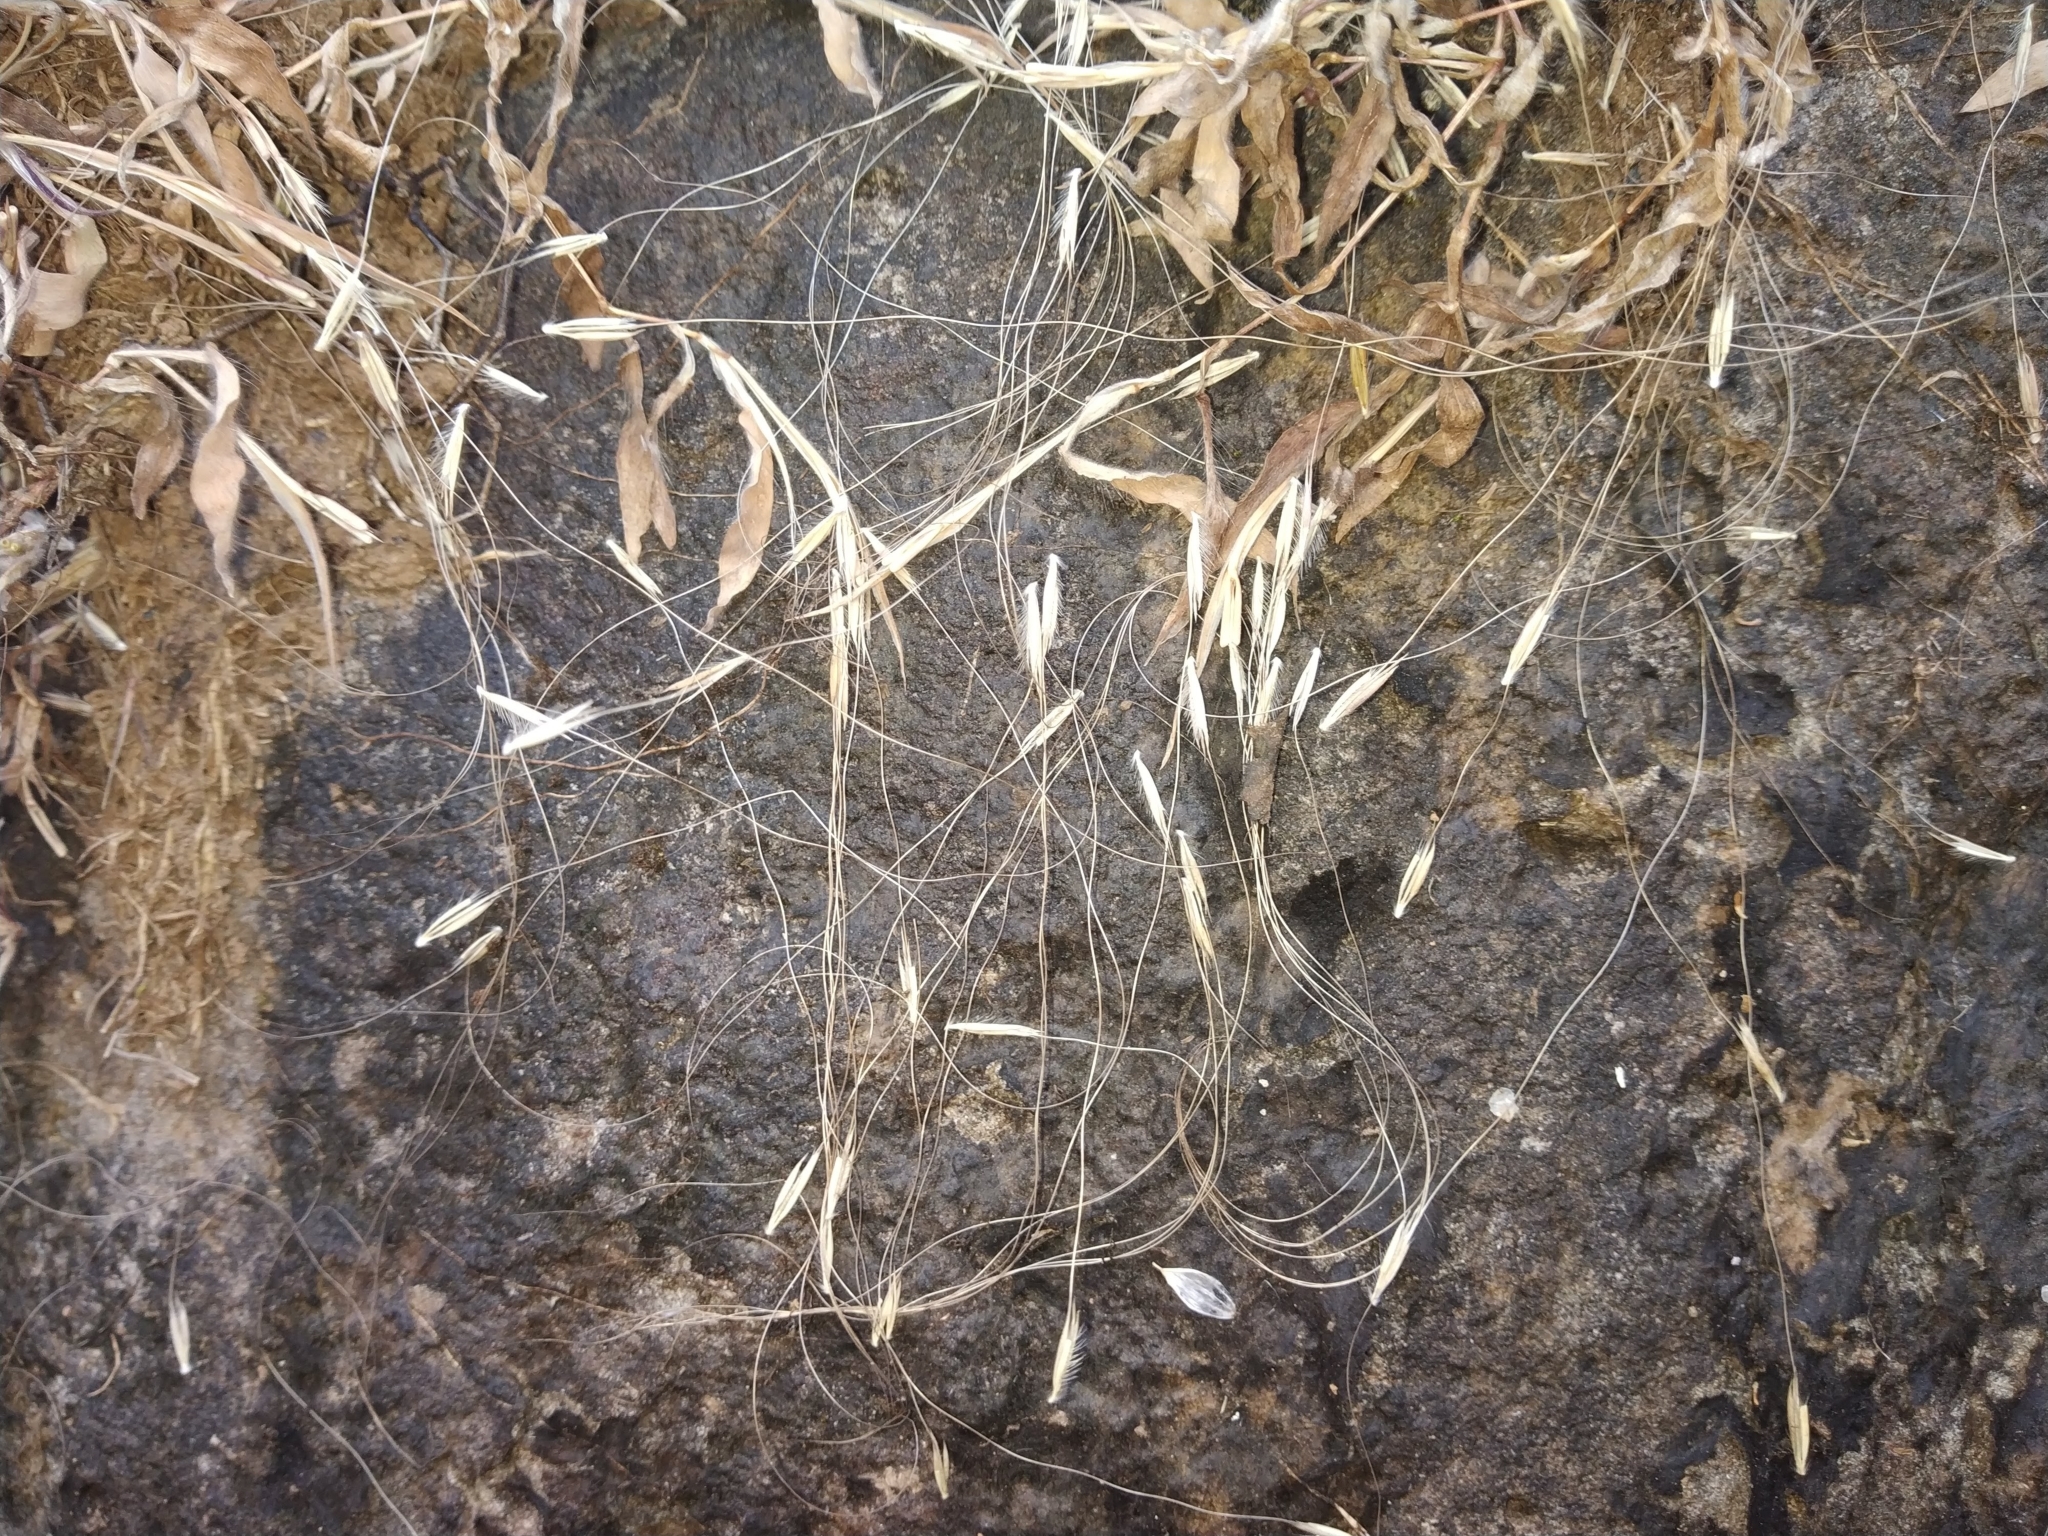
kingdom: Plantae
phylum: Tracheophyta
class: Liliopsida
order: Poales
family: Poaceae
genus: Arthraxon
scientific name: Arthraxon jubatus
